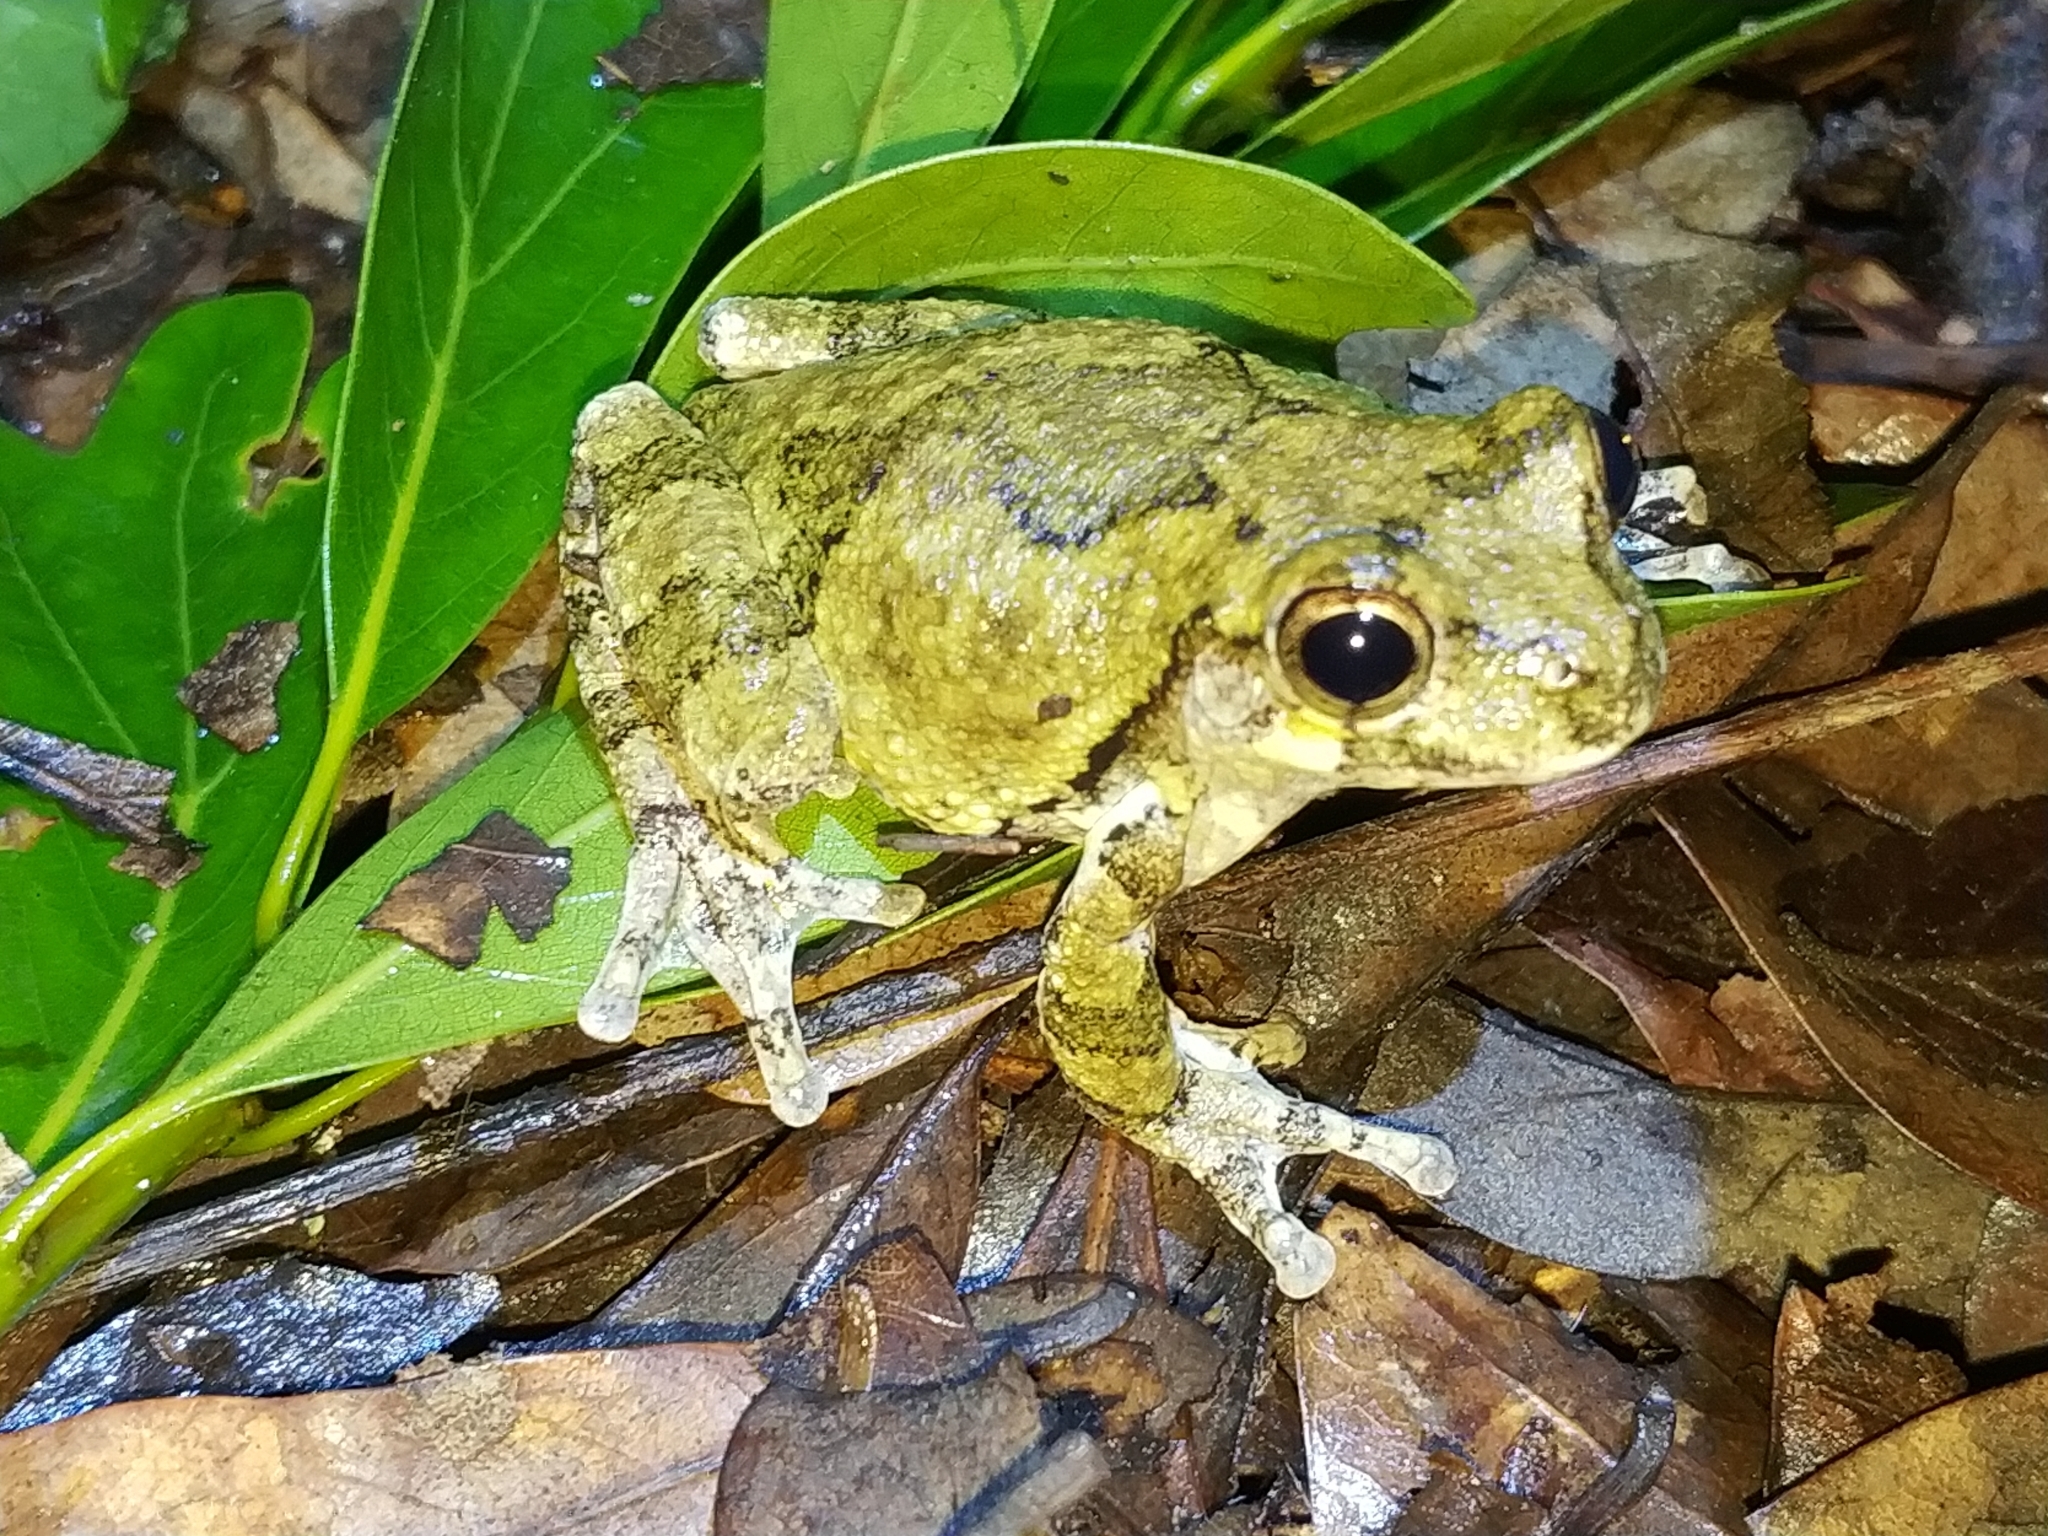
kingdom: Animalia
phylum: Chordata
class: Amphibia
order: Anura
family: Hylidae
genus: Dryophytes
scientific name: Dryophytes chrysoscelis
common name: Cope's gray treefrog
